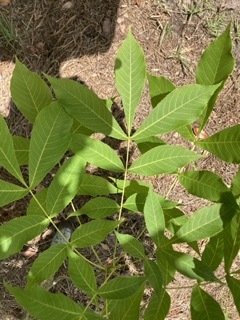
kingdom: Plantae
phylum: Tracheophyta
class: Magnoliopsida
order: Fagales
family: Juglandaceae
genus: Carya
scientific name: Carya glabra
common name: Pignut hickory
